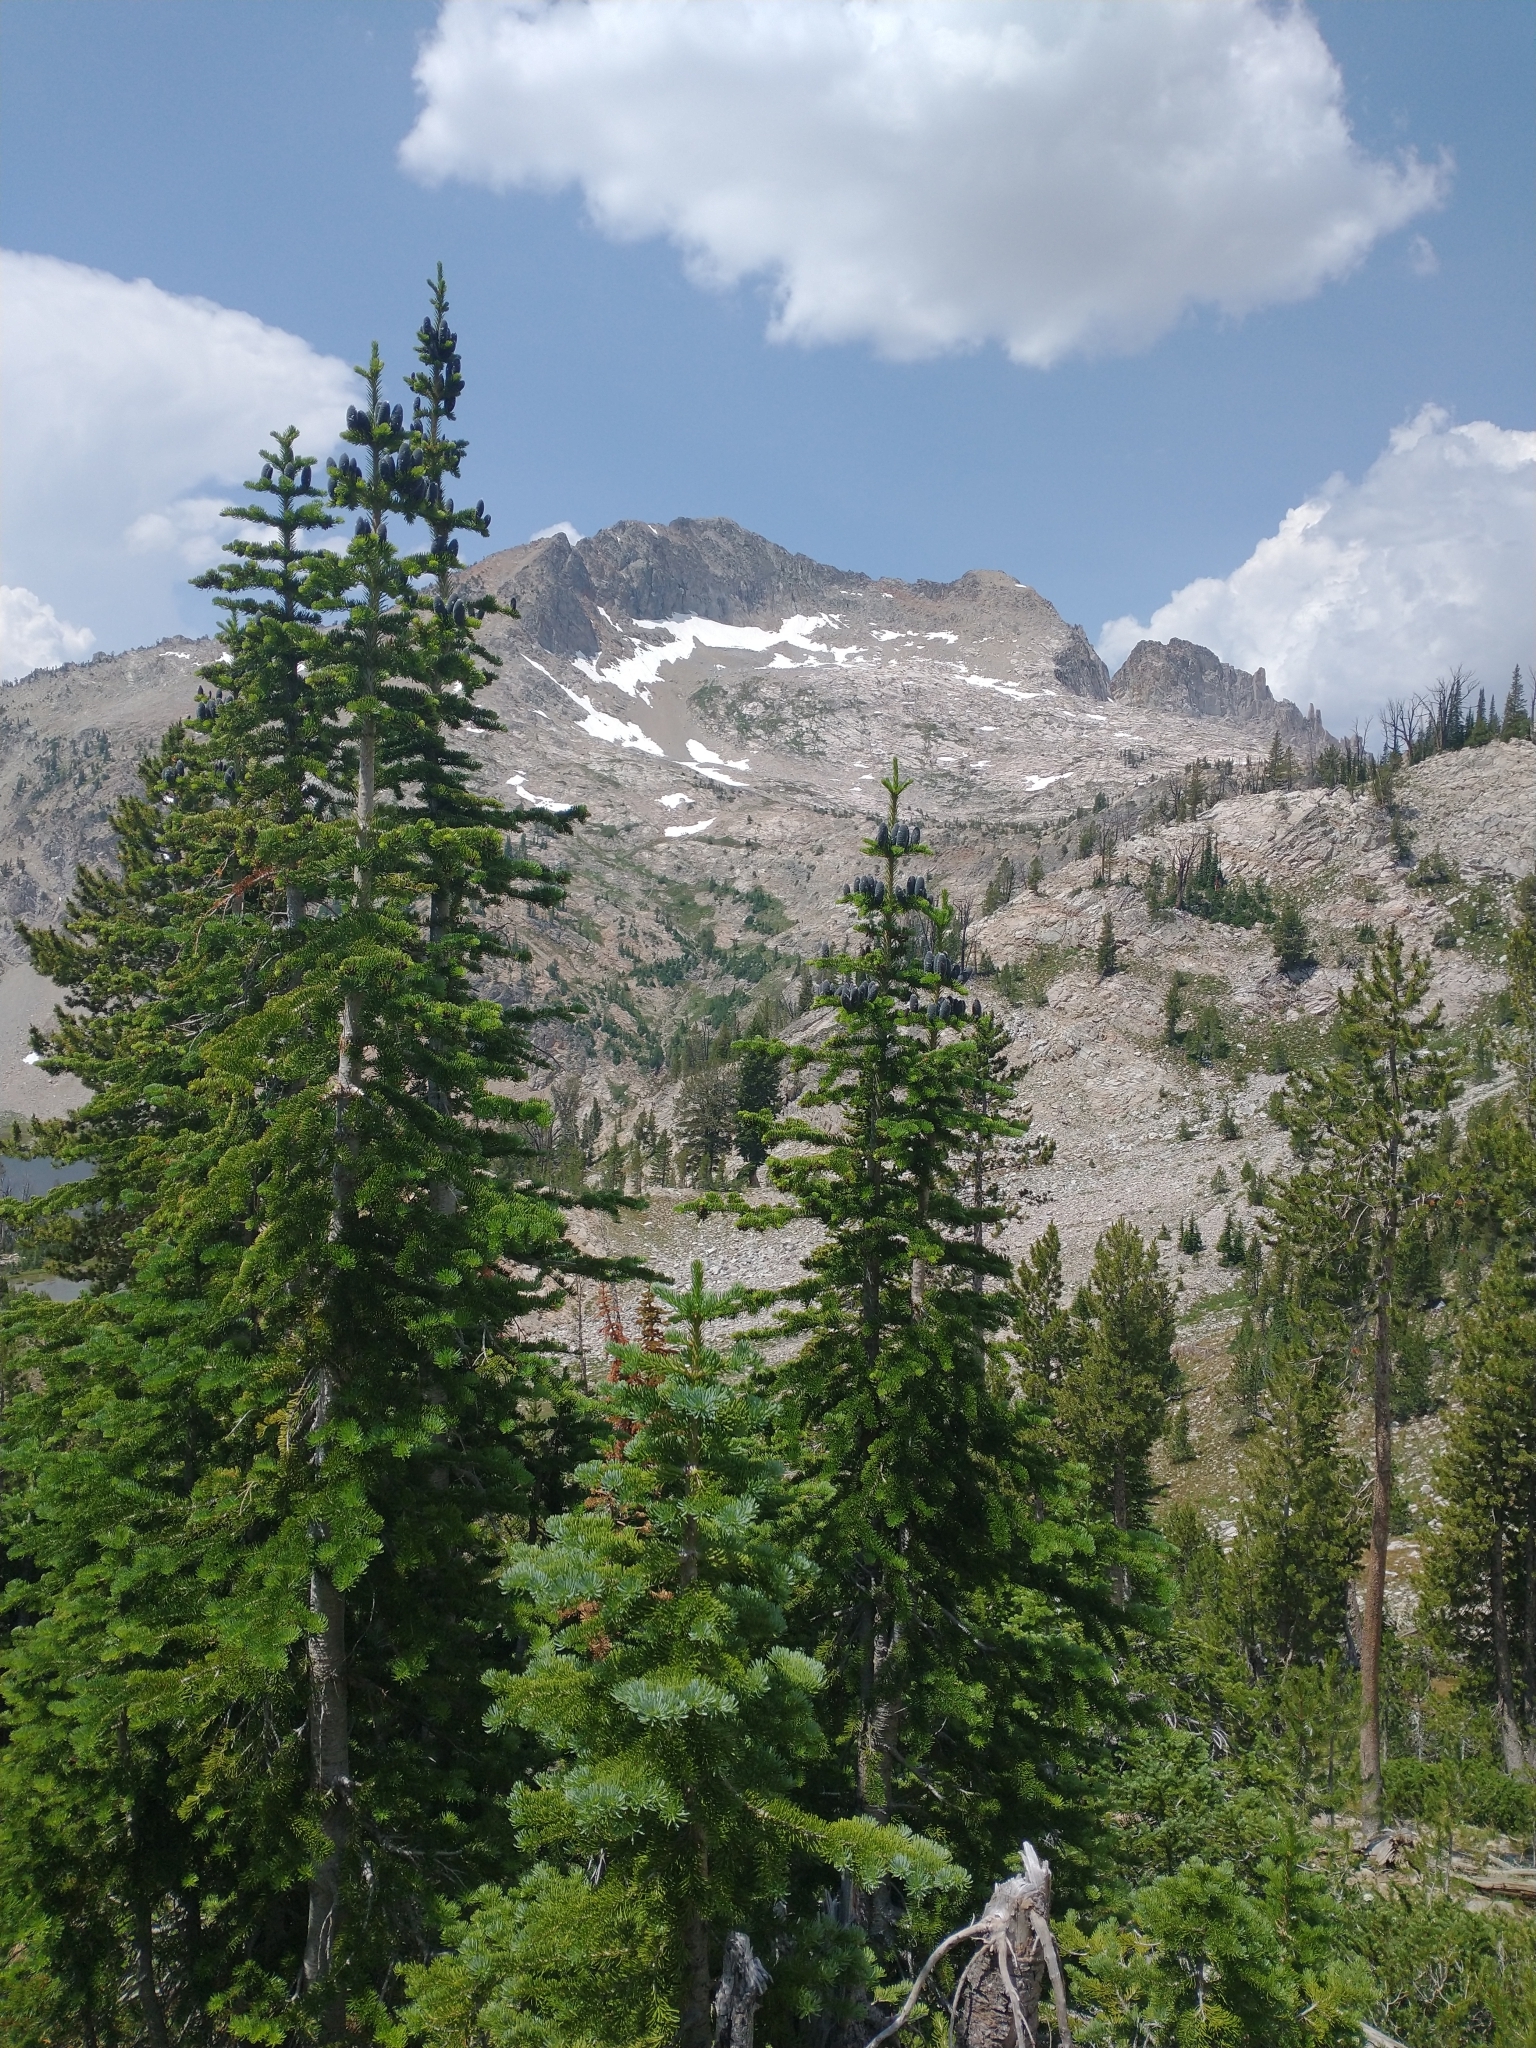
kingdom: Plantae
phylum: Tracheophyta
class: Pinopsida
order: Pinales
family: Pinaceae
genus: Abies
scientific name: Abies lasiocarpa
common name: Subalpine fir
